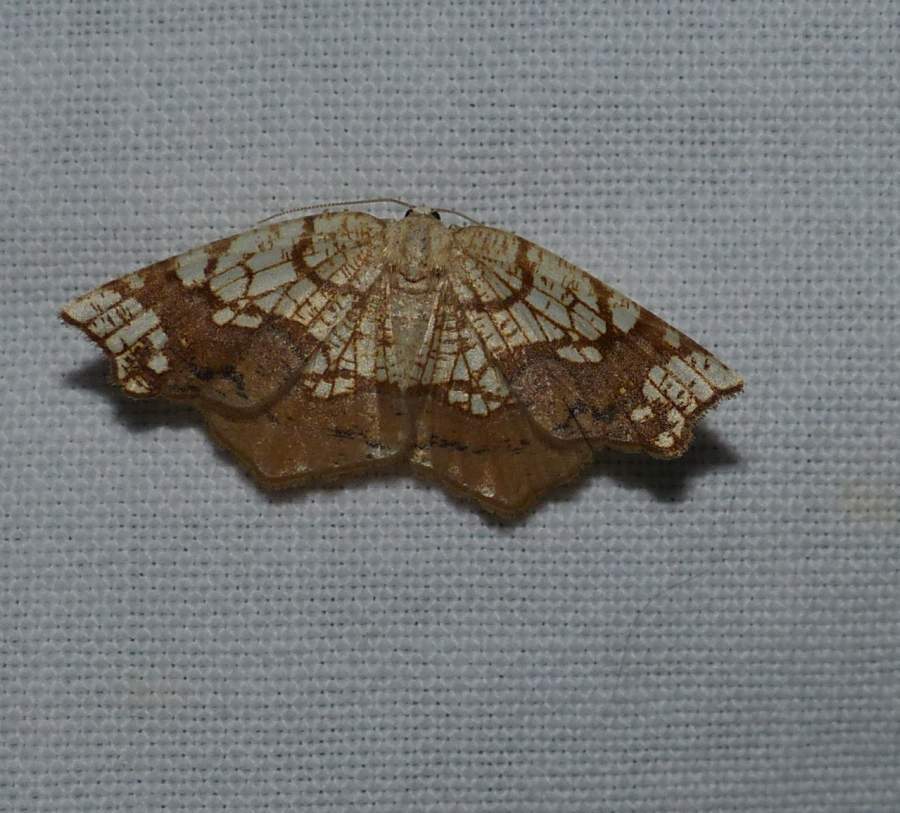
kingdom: Animalia
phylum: Arthropoda
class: Insecta
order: Lepidoptera
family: Geometridae
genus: Nematocampa
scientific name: Nematocampa resistaria
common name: Horned spanworm moth
